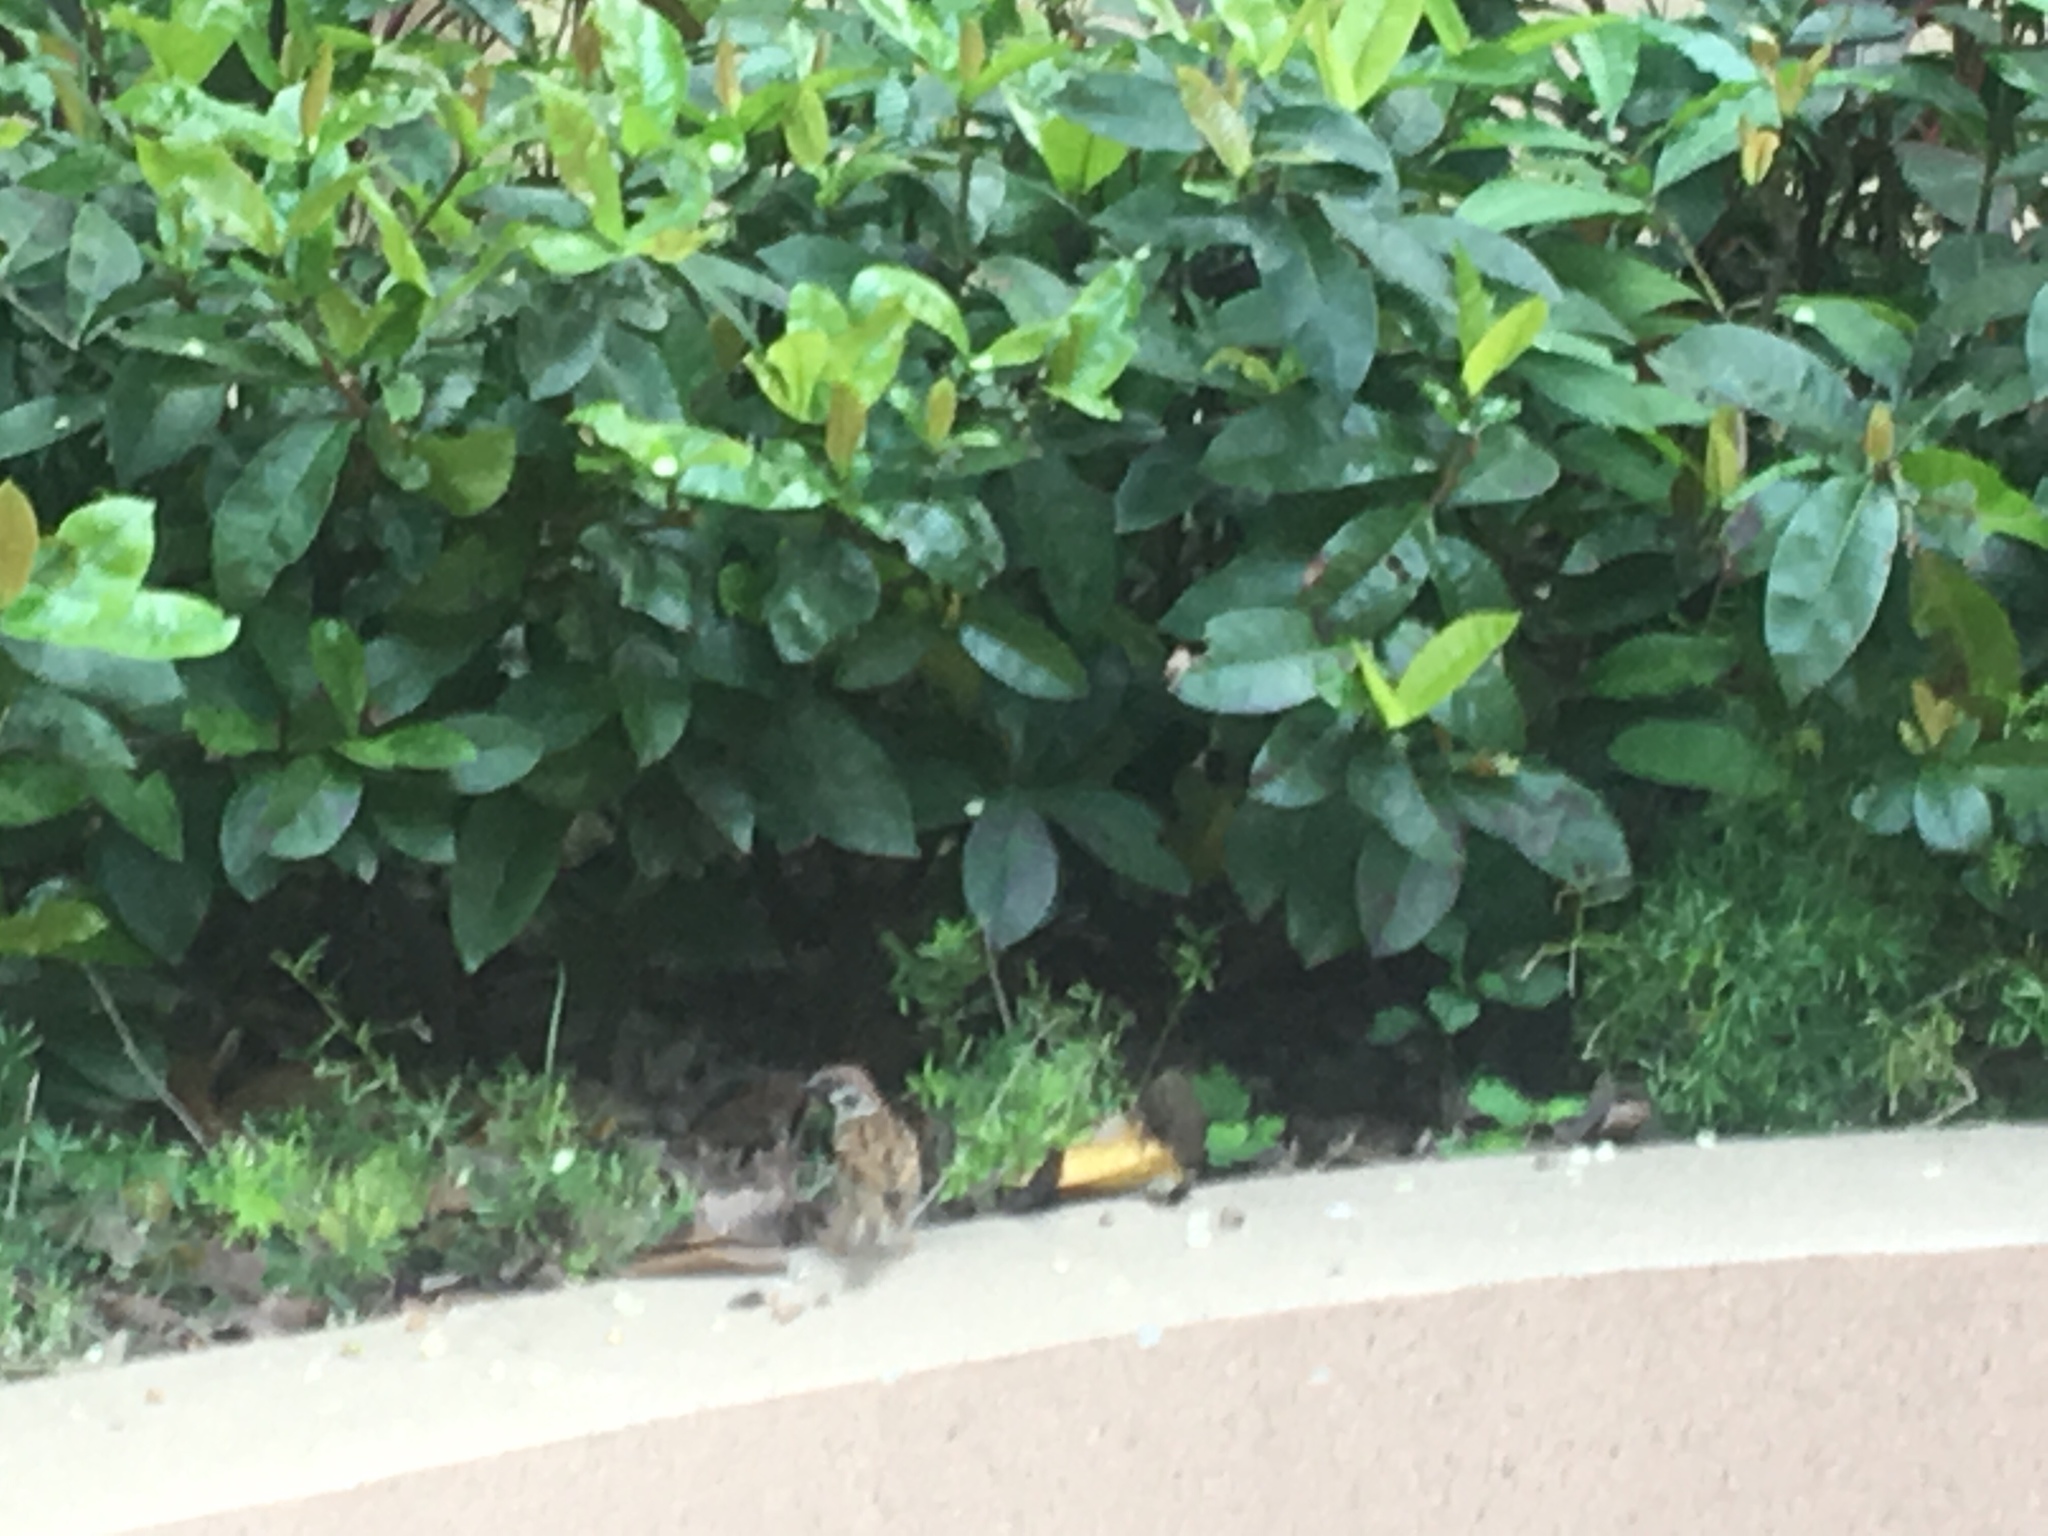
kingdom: Animalia
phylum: Chordata
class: Aves
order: Passeriformes
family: Passeridae
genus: Passer
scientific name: Passer montanus
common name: Eurasian tree sparrow
